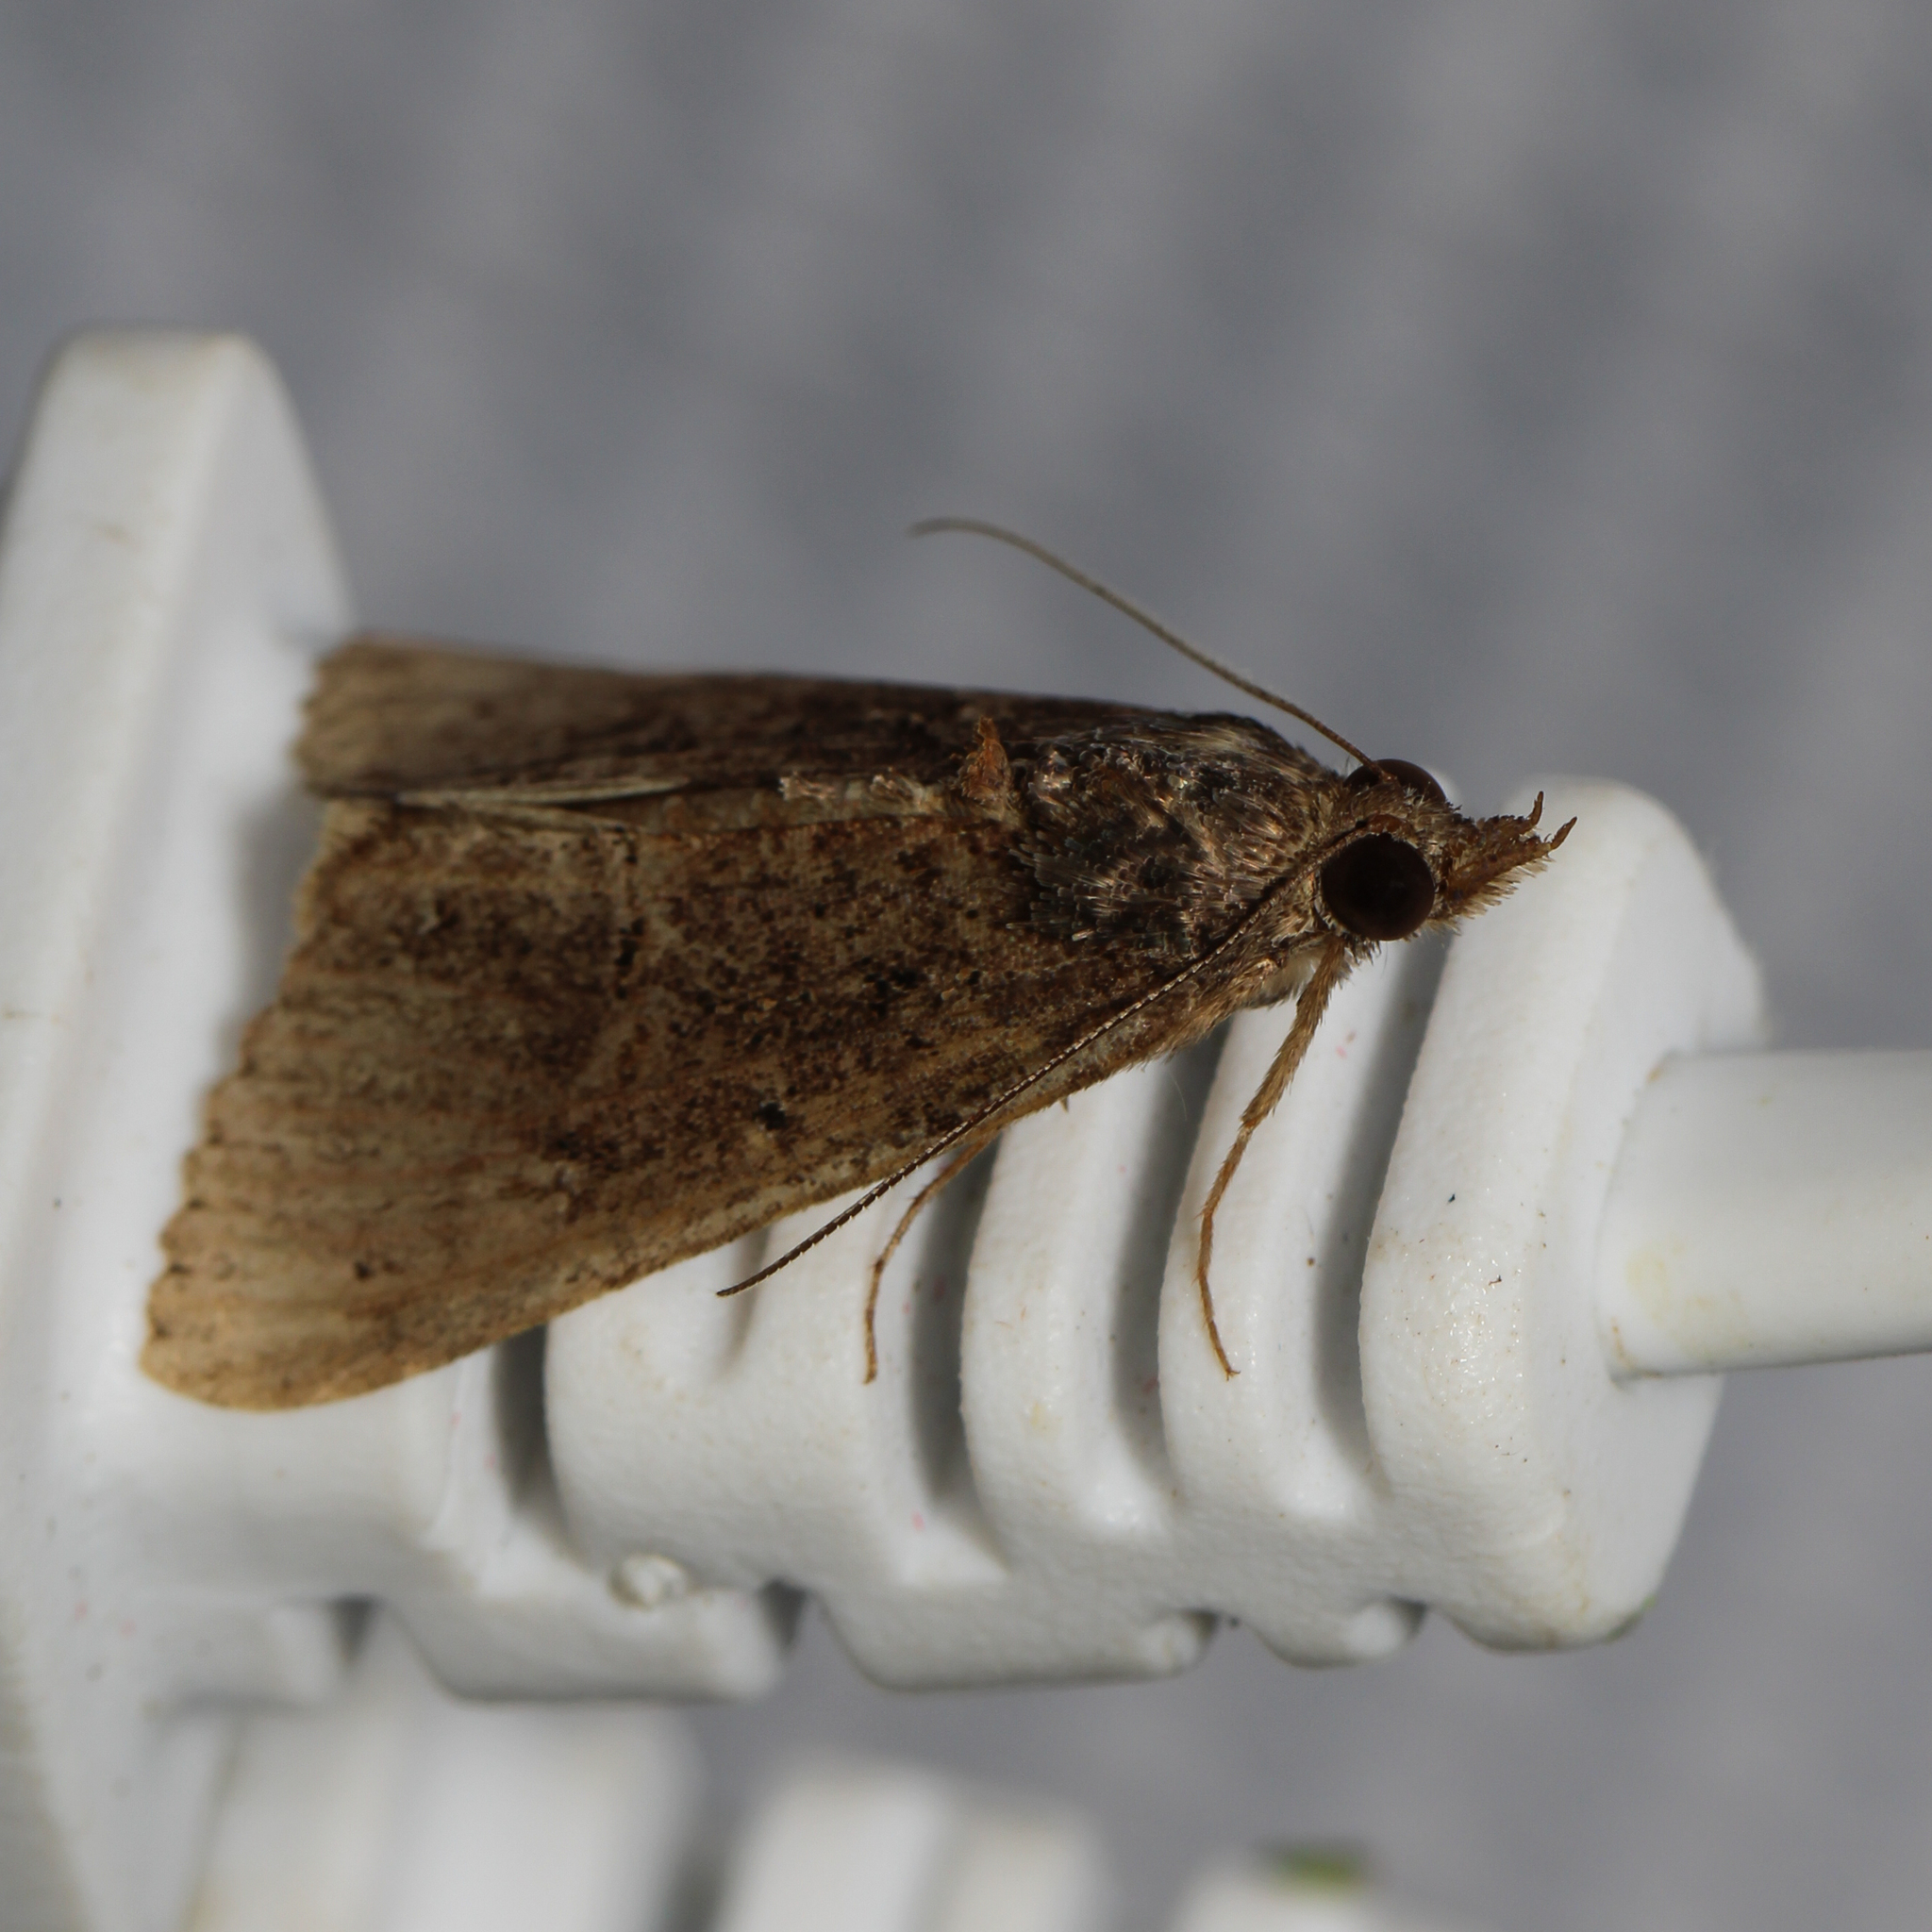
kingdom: Animalia
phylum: Arthropoda
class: Insecta
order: Lepidoptera
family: Erebidae
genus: Hypena
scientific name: Hypena scabra
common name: Green cloverworm
